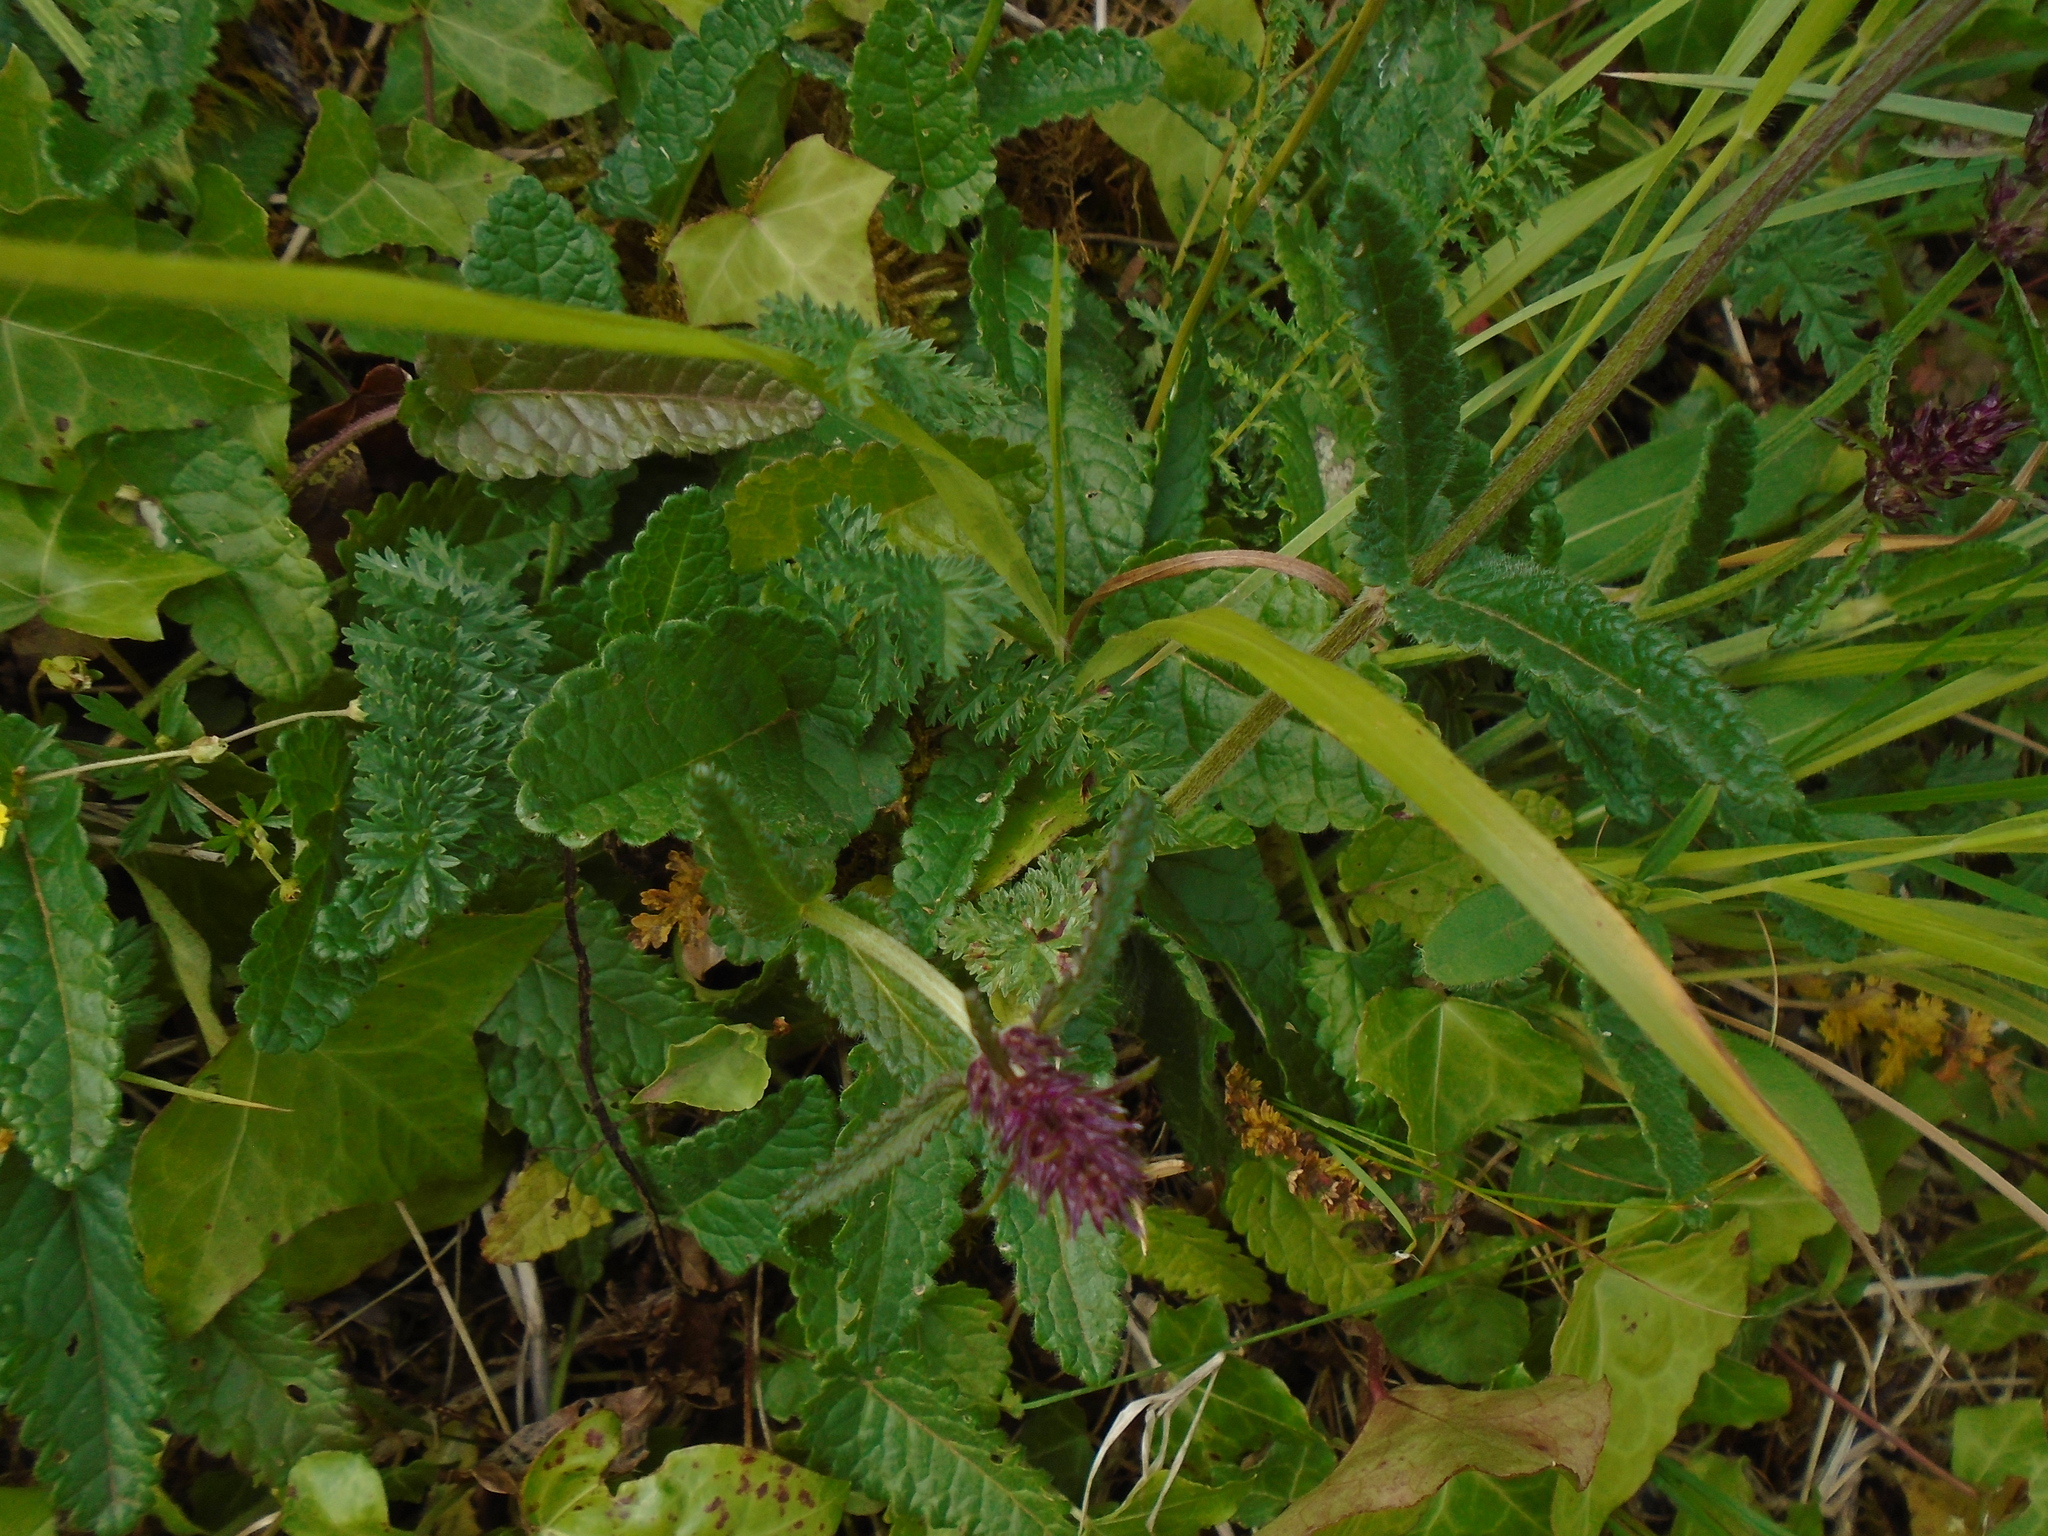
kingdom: Plantae
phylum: Tracheophyta
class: Magnoliopsida
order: Lamiales
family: Lamiaceae
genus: Betonica
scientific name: Betonica officinalis
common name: Bishop's-wort
